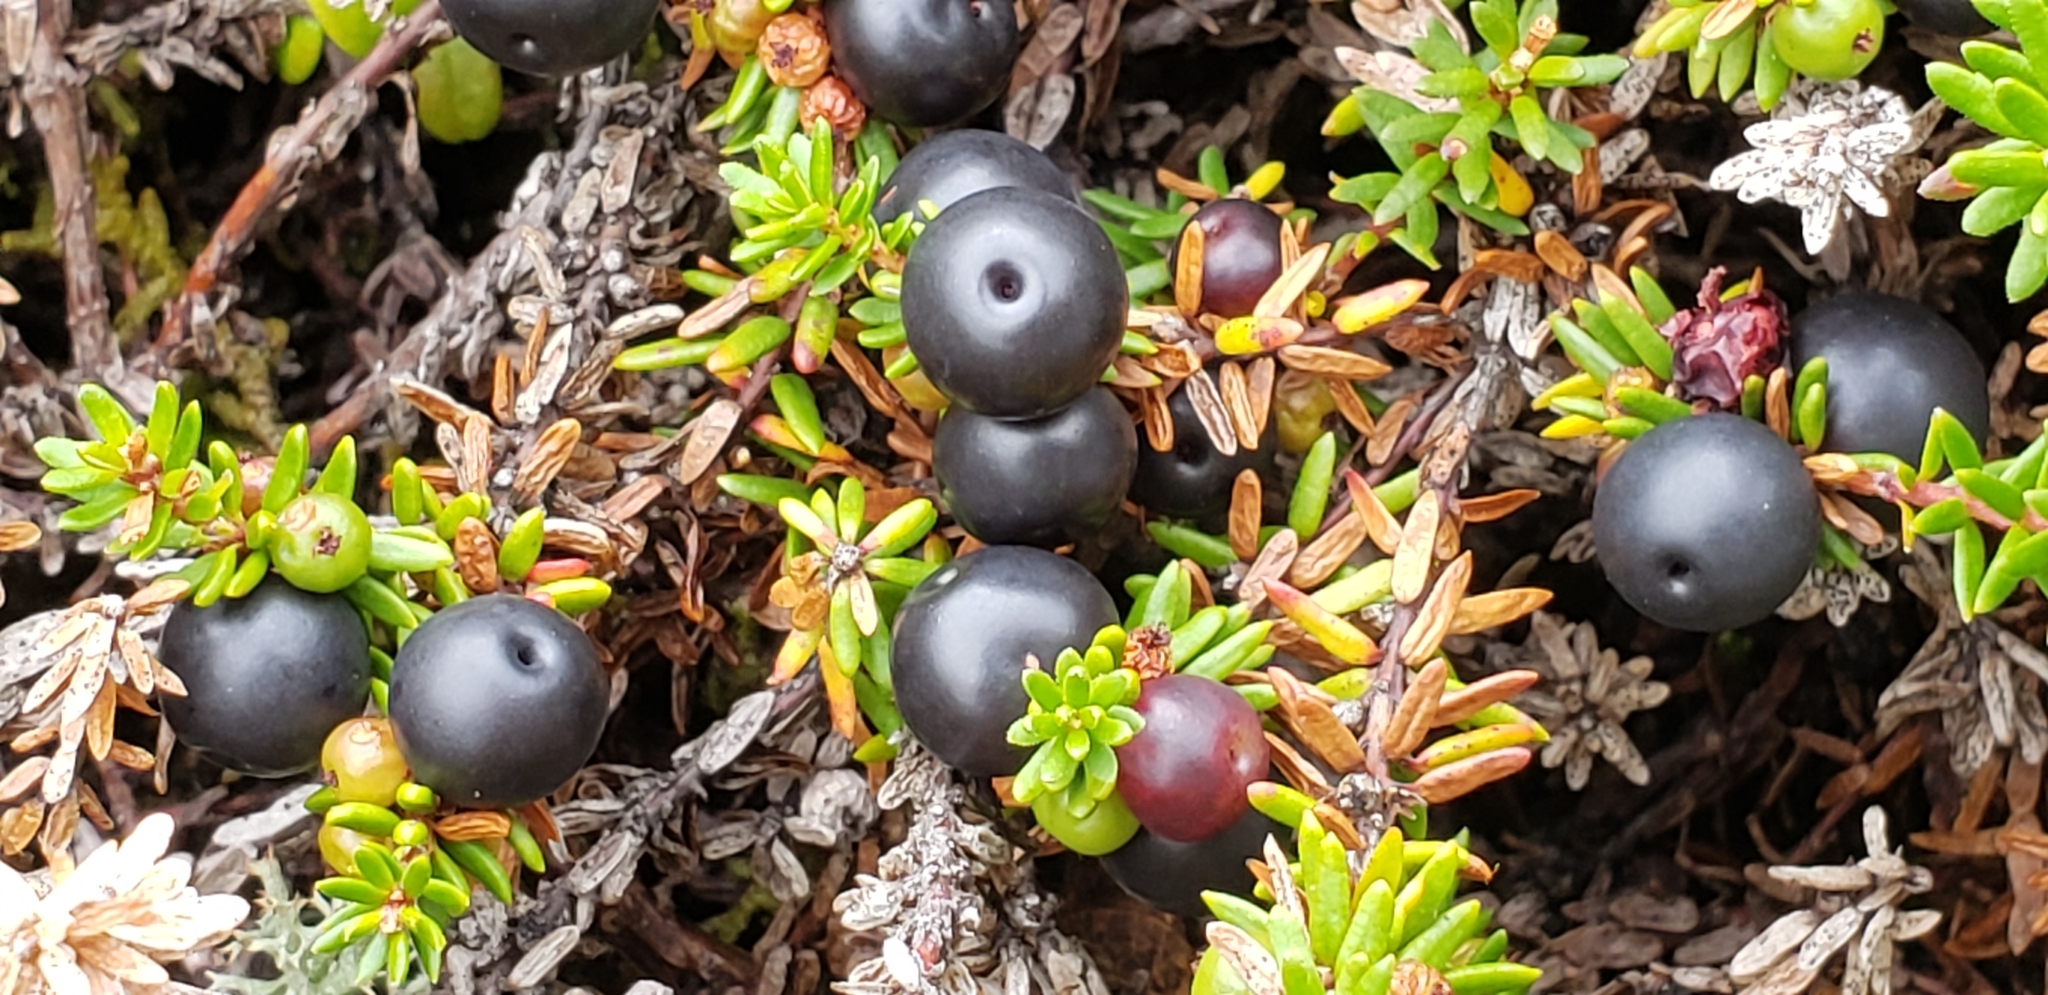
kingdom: Plantae
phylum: Tracheophyta
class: Magnoliopsida
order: Ericales
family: Ericaceae
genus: Empetrum
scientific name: Empetrum nigrum
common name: Black crowberry
